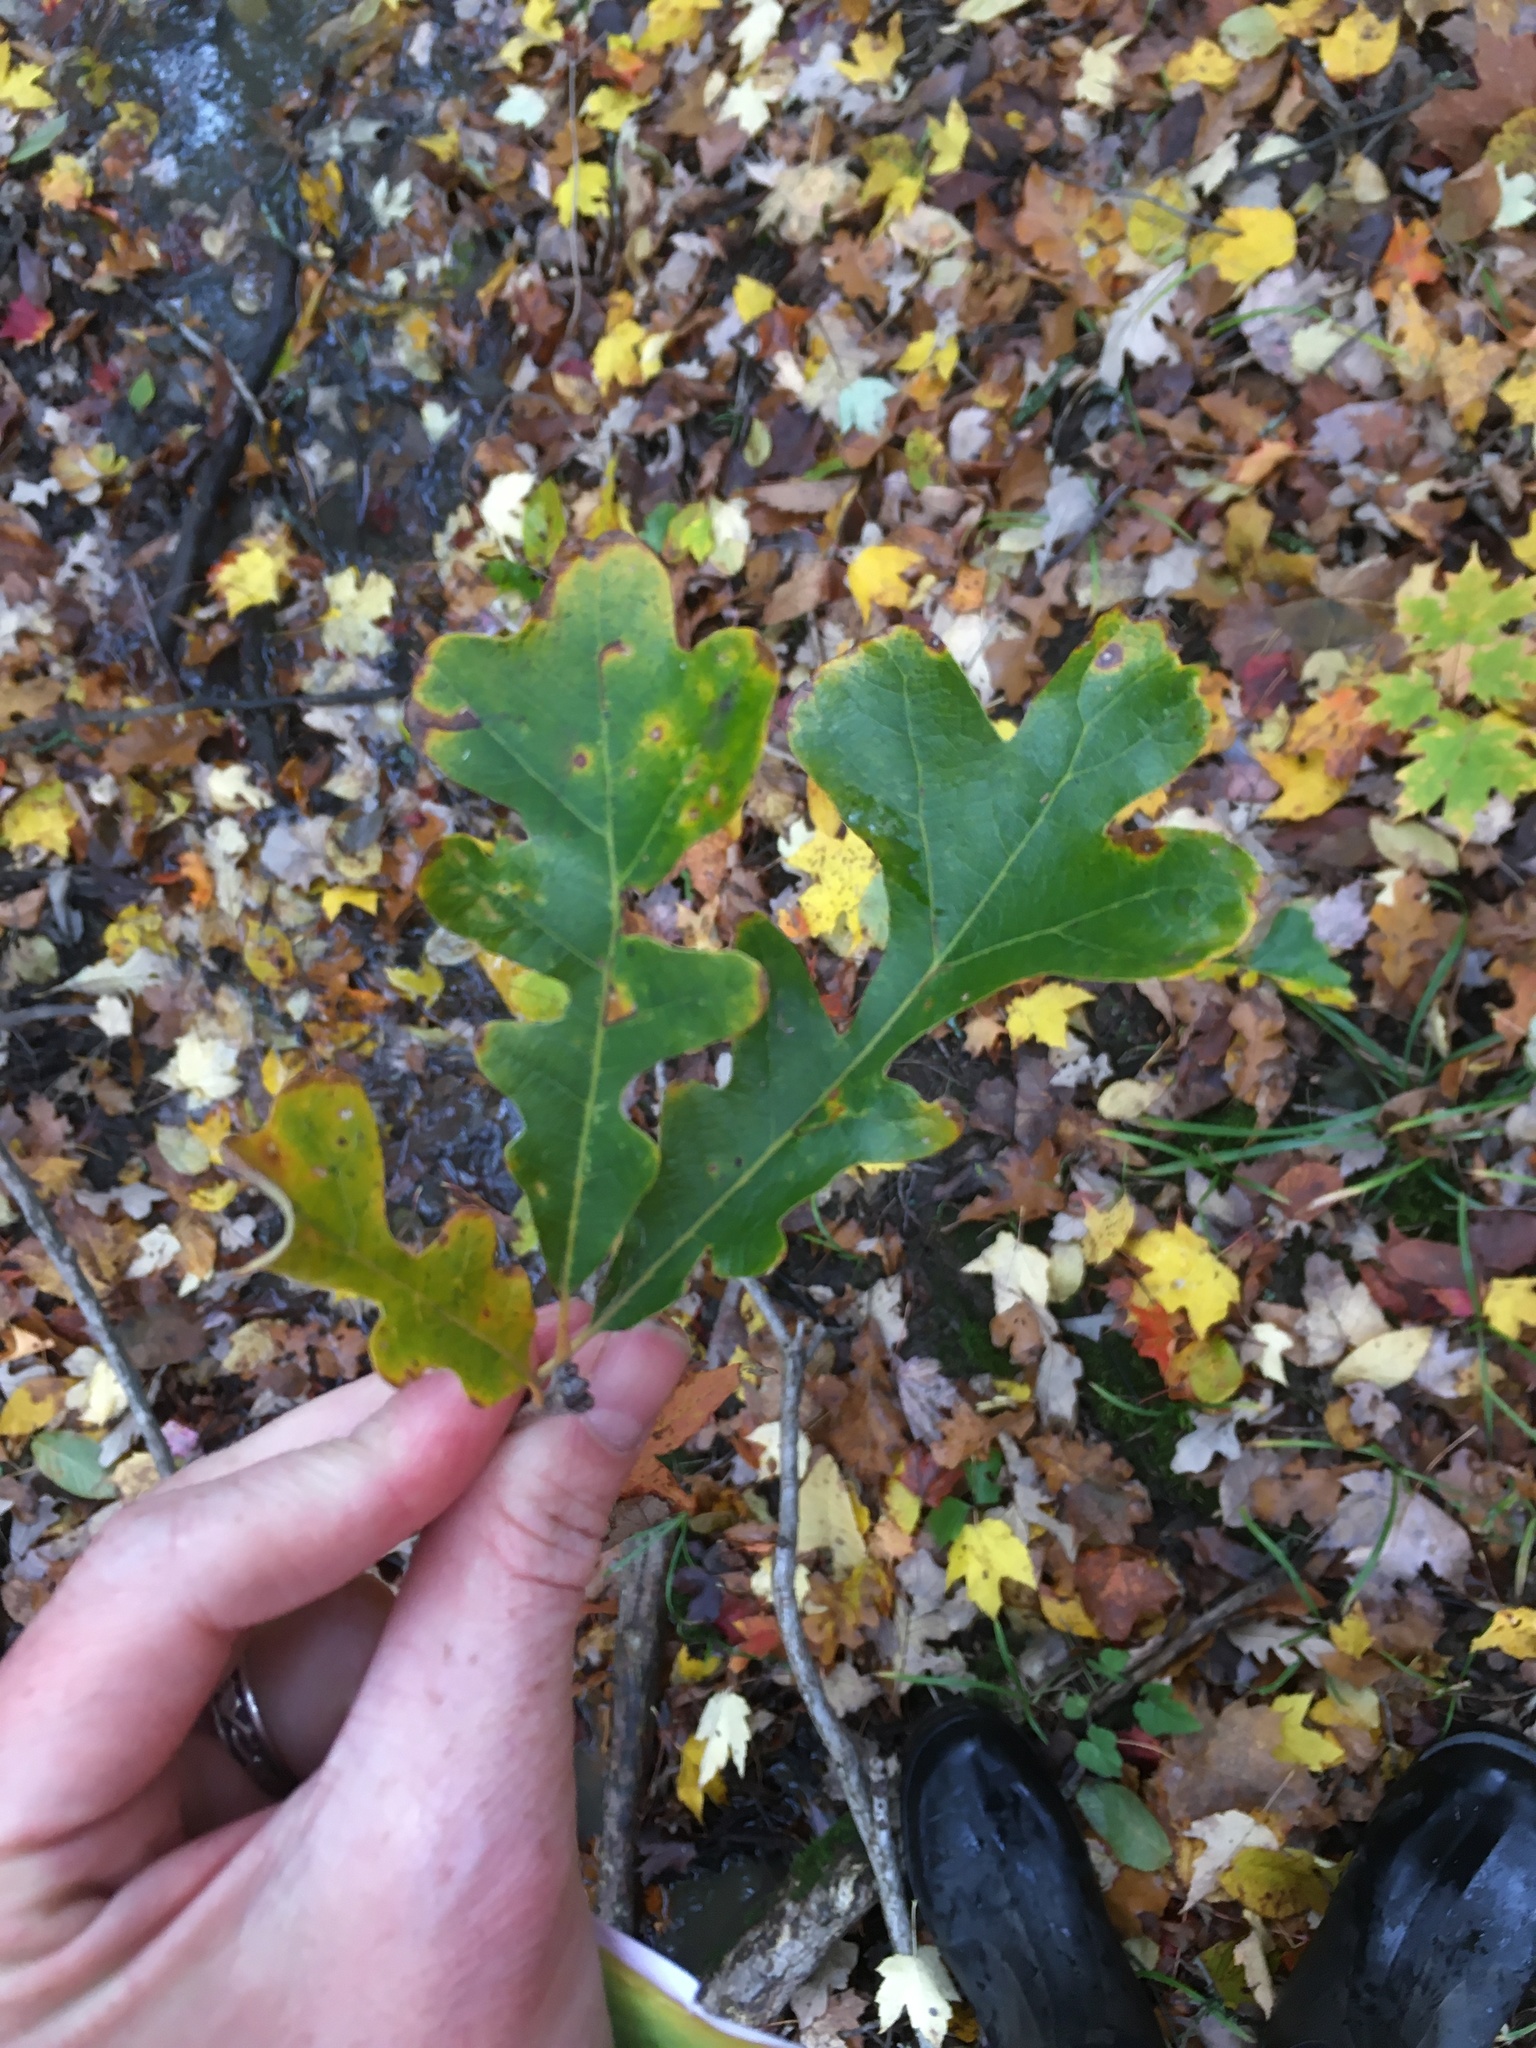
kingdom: Plantae
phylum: Tracheophyta
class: Magnoliopsida
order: Fagales
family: Fagaceae
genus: Quercus
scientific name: Quercus macrocarpa
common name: Bur oak
